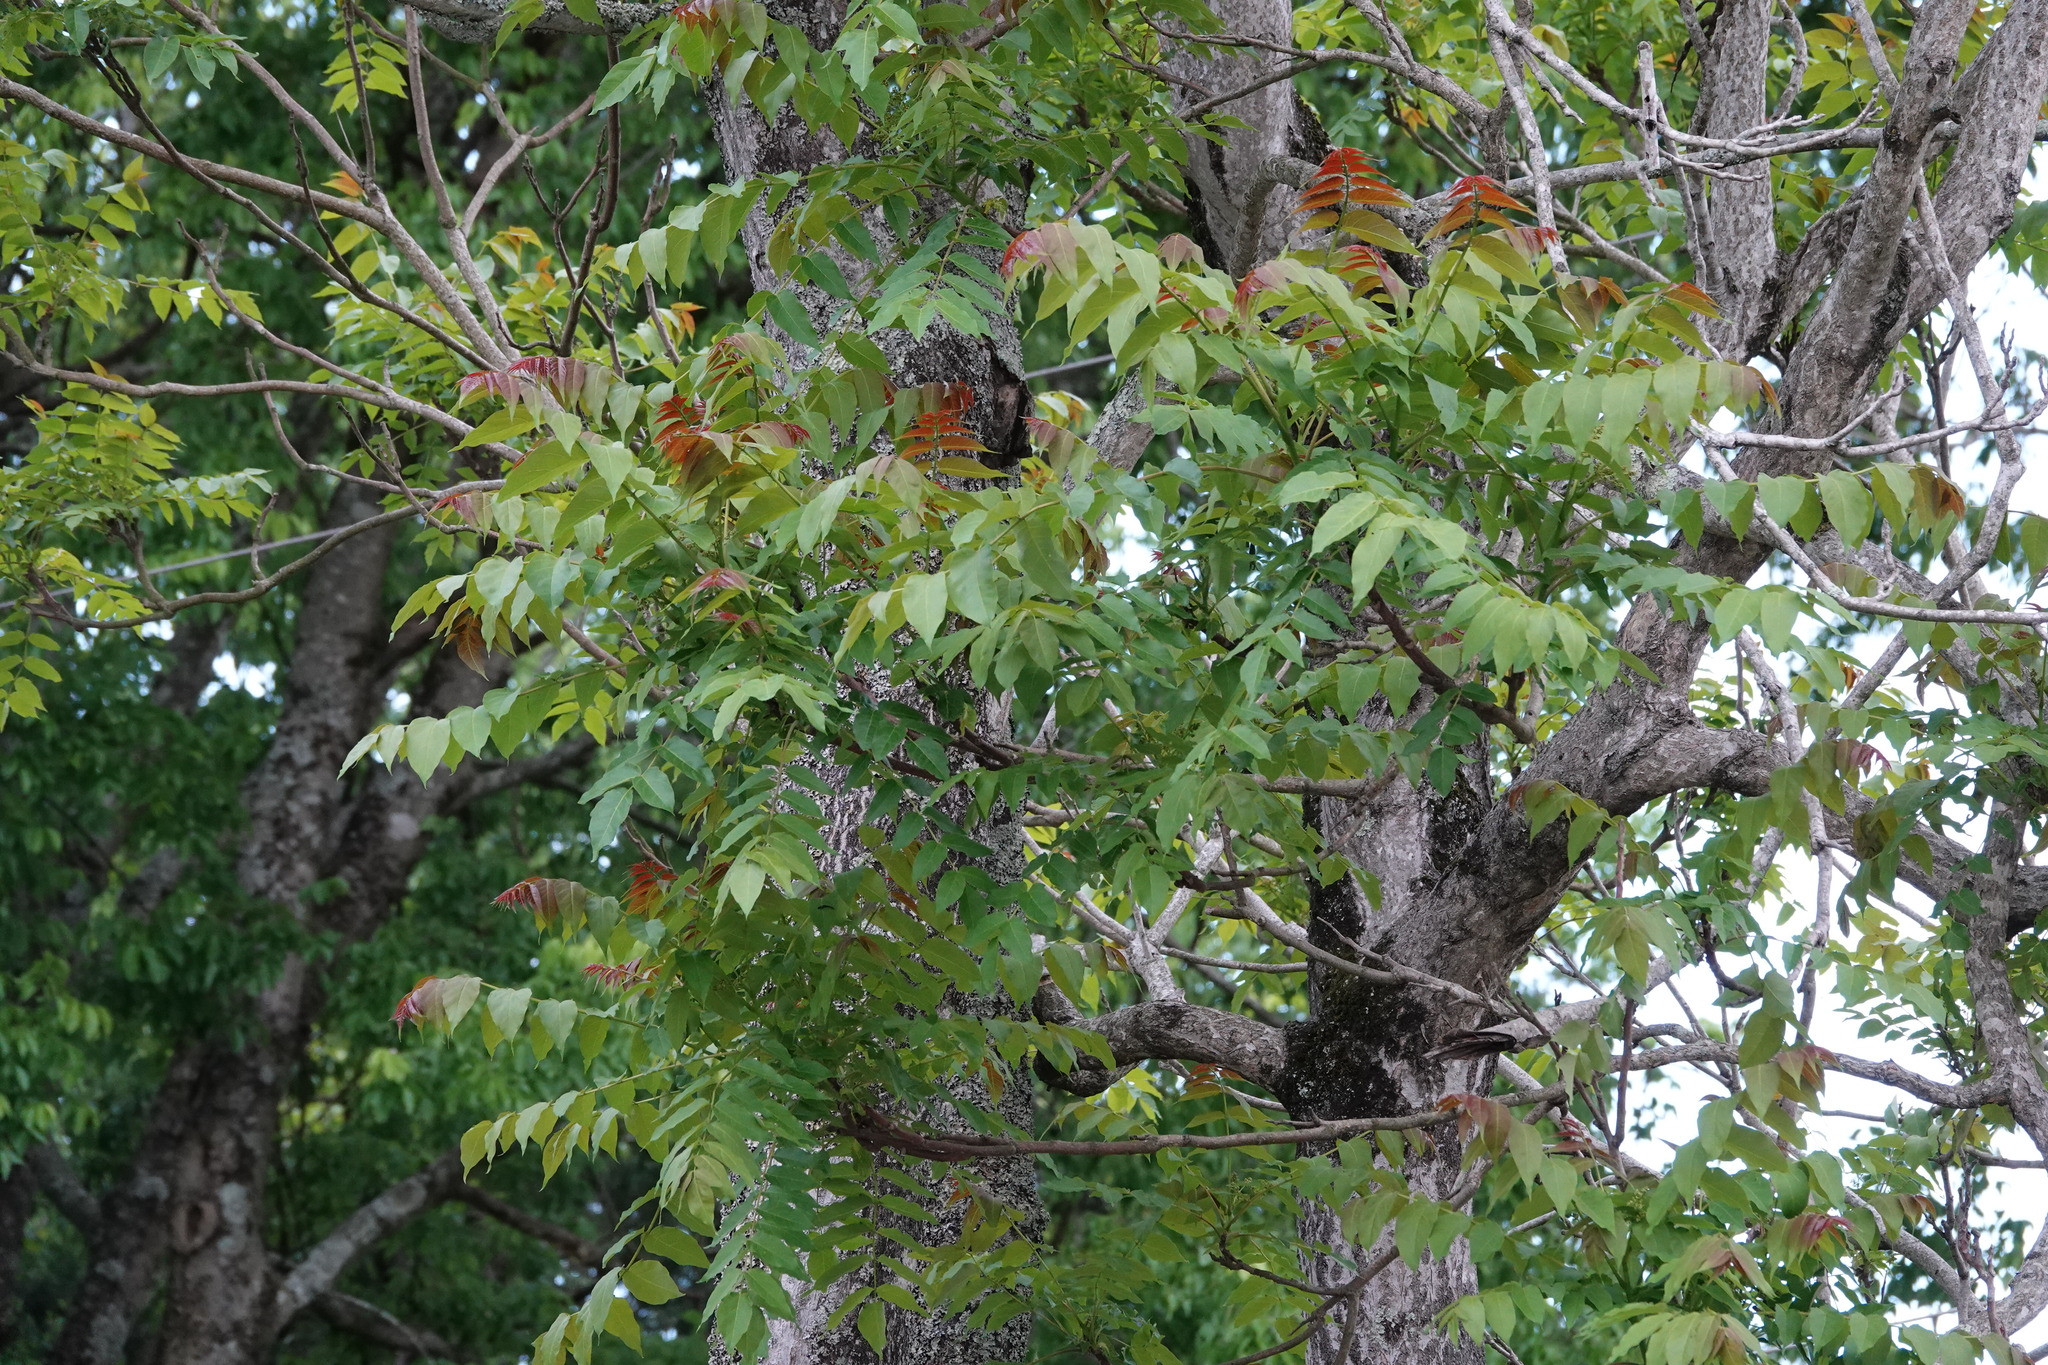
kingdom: Plantae
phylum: Tracheophyta
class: Magnoliopsida
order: Sapindales
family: Simaroubaceae
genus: Ailanthus
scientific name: Ailanthus altissima
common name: Tree-of-heaven
